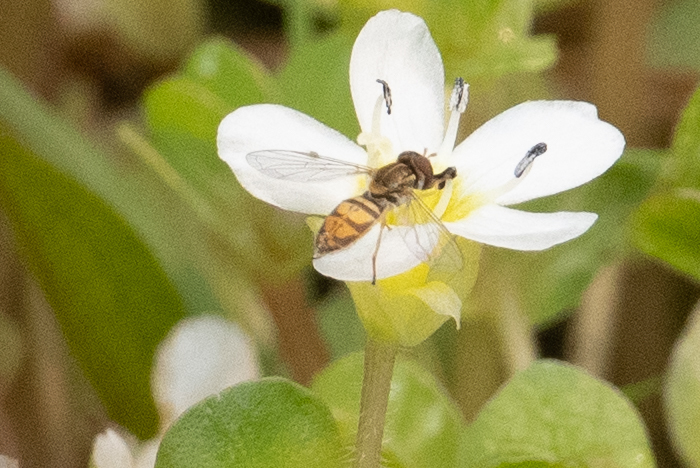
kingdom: Animalia
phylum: Arthropoda
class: Insecta
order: Diptera
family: Syrphidae
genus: Toxomerus
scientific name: Toxomerus marginatus
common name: Syrphid fly
